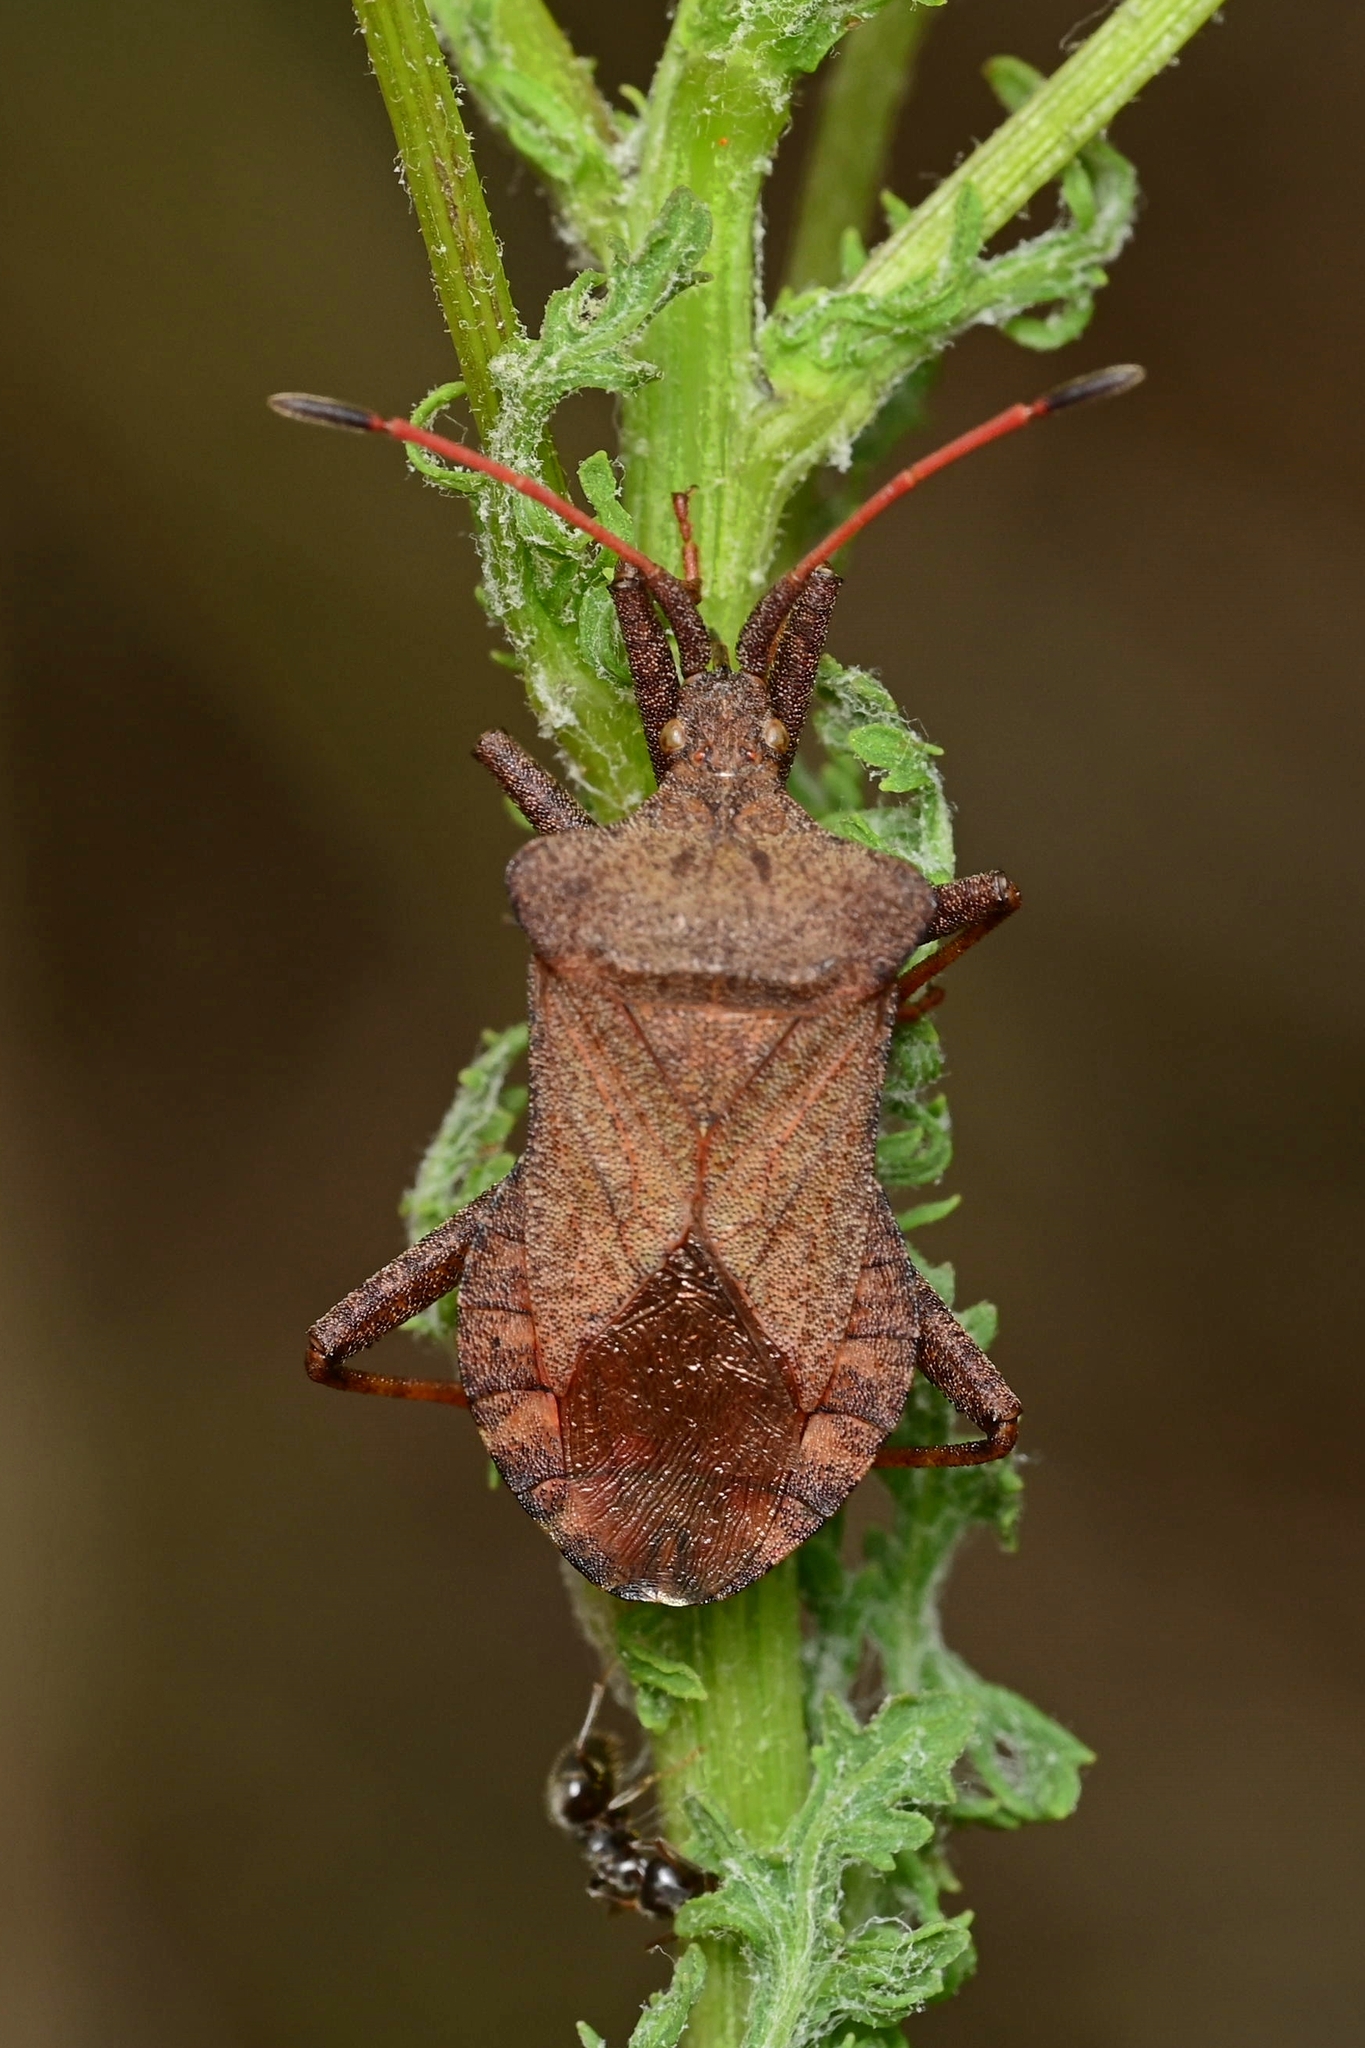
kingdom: Animalia
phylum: Arthropoda
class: Insecta
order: Hemiptera
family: Coreidae
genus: Coreus
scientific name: Coreus marginatus
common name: Dock bug
